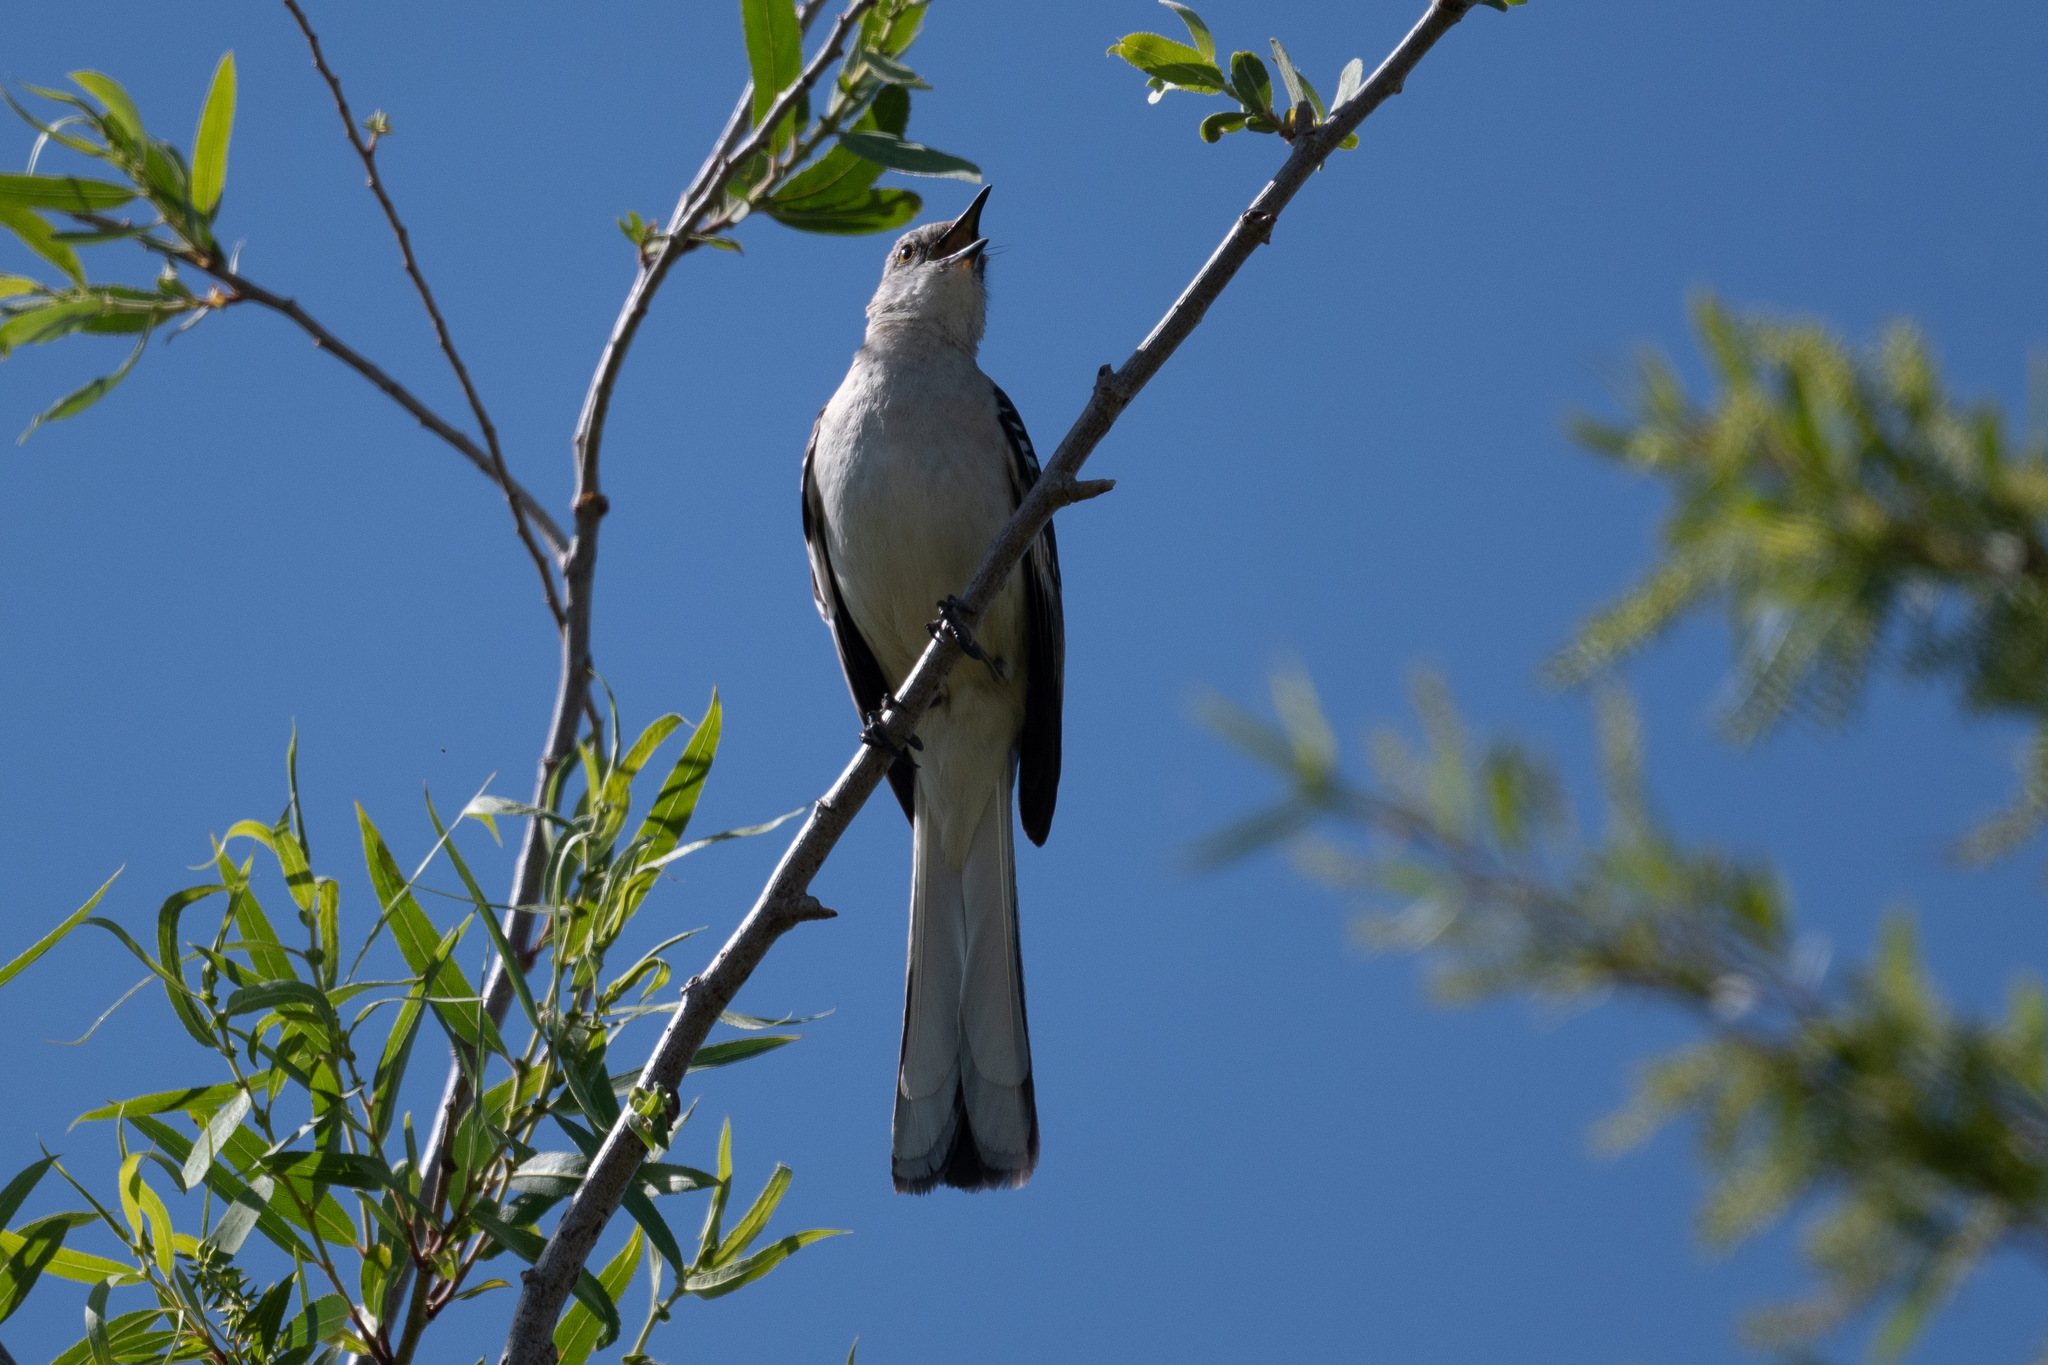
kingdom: Animalia
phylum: Chordata
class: Aves
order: Passeriformes
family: Mimidae
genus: Mimus
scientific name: Mimus polyglottos
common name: Northern mockingbird
